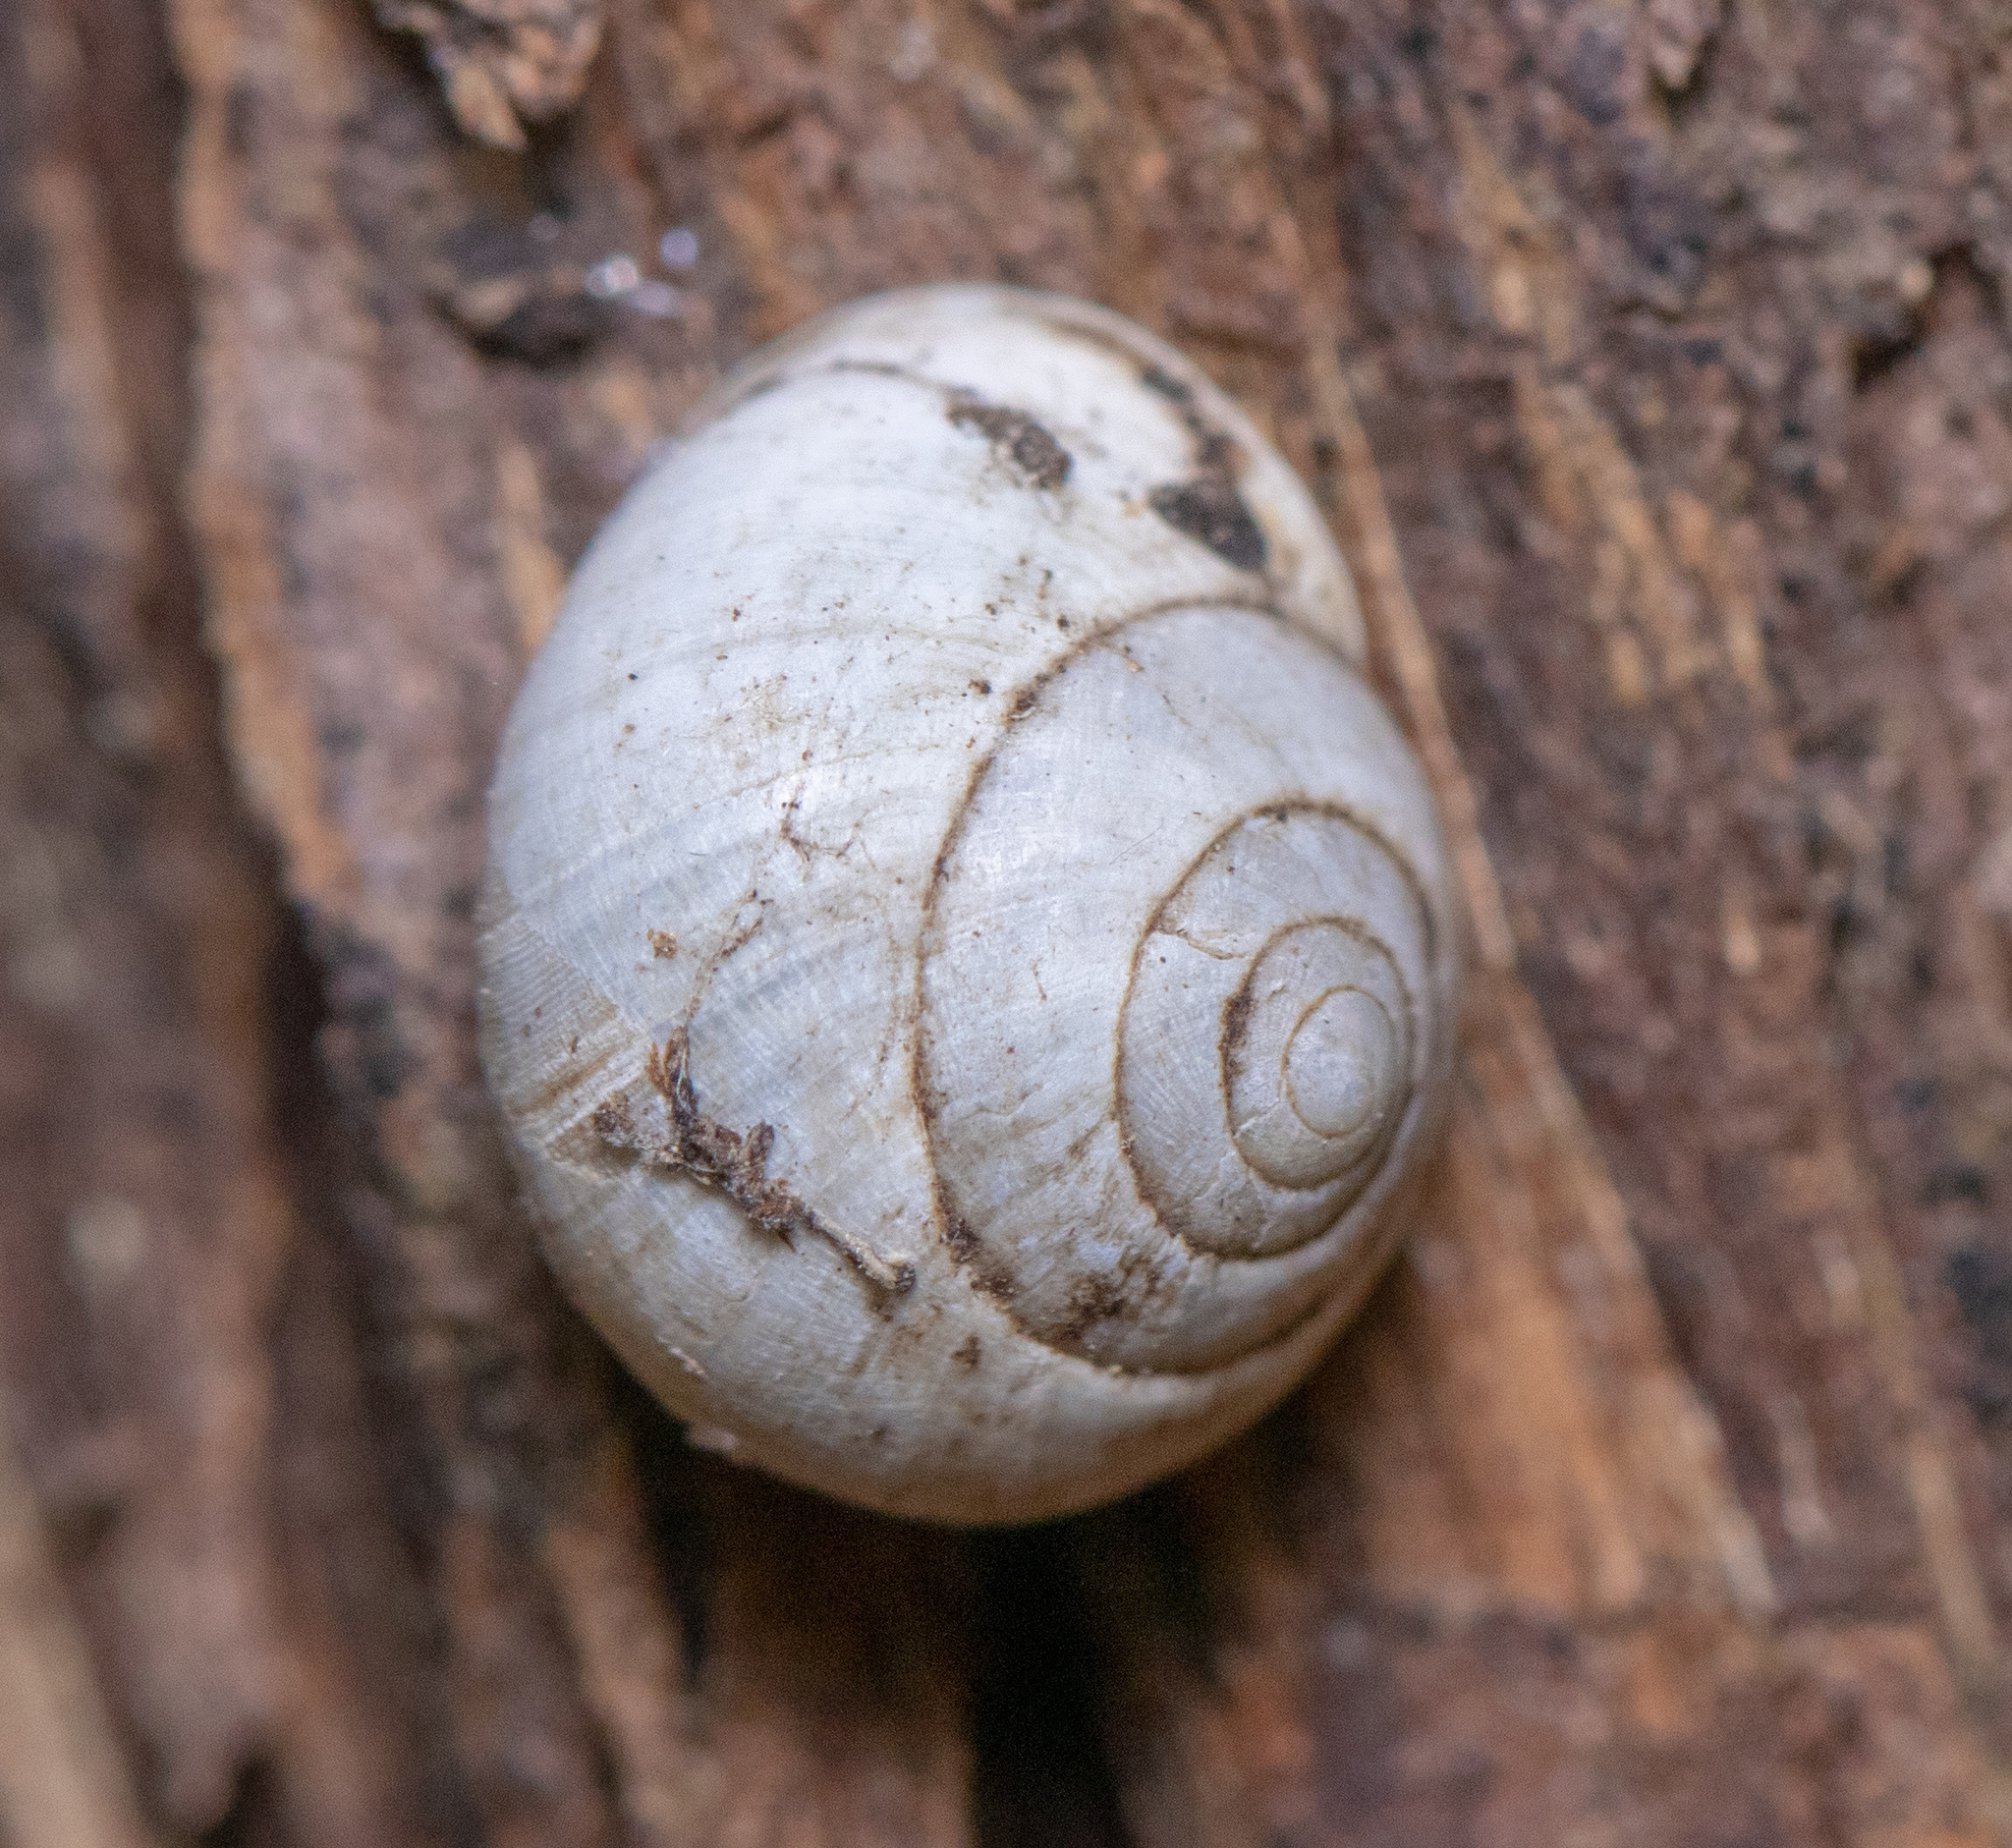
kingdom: Animalia
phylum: Mollusca
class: Gastropoda
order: Cycloneritida
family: Helicinidae
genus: Helicina
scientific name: Helicina orbiculata
